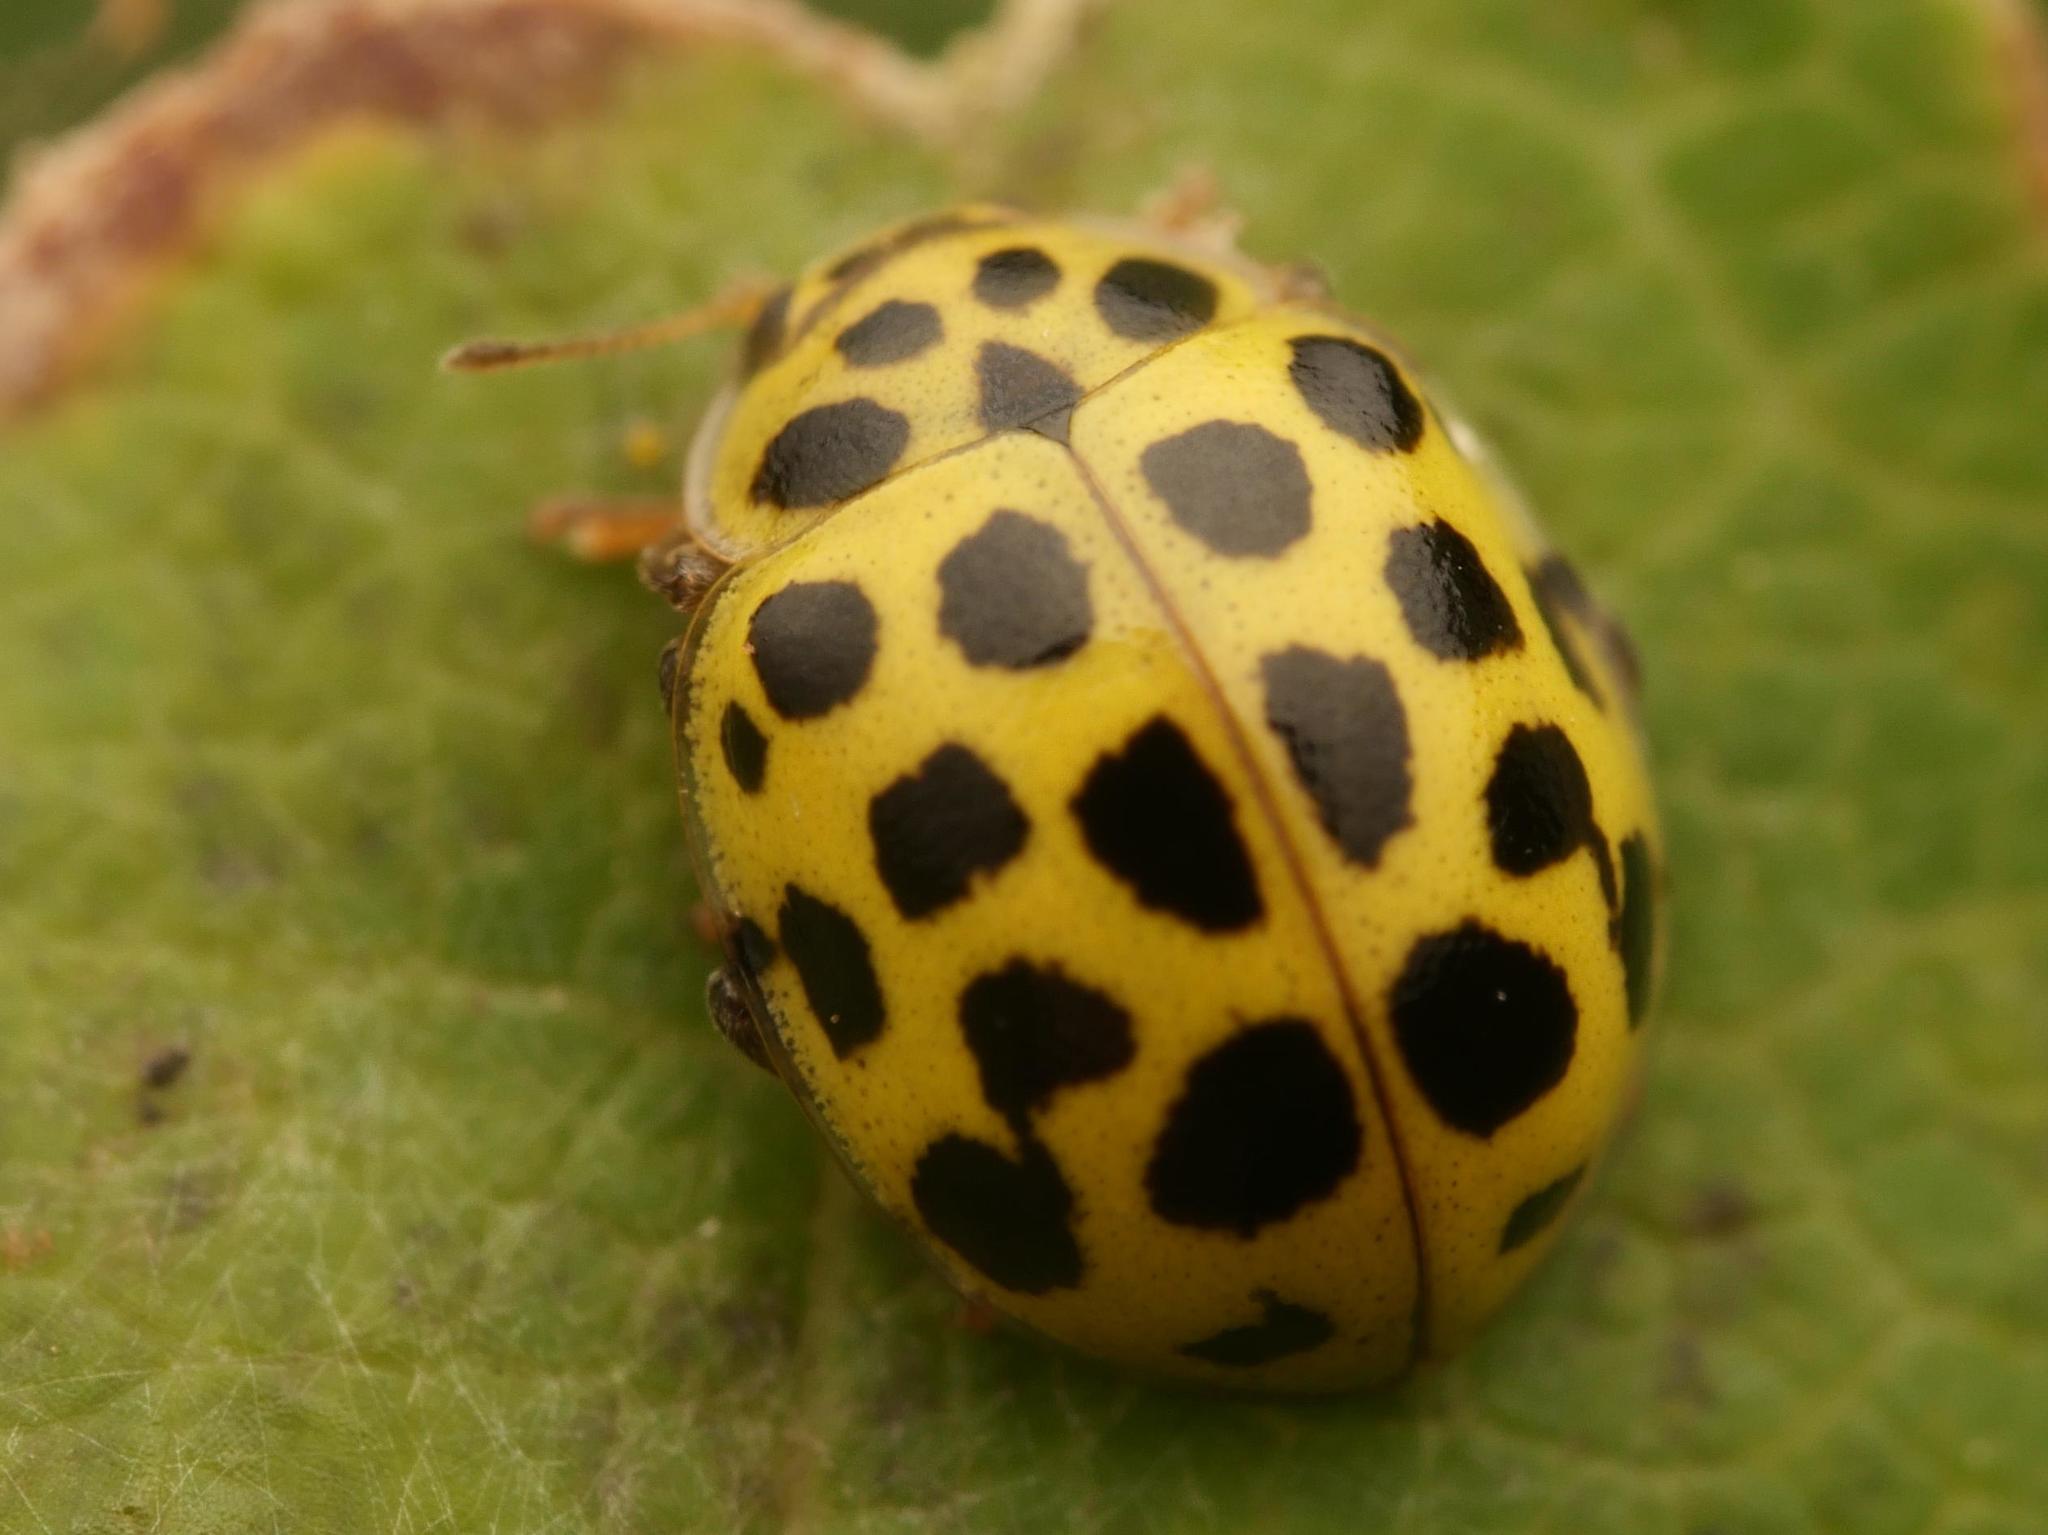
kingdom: Animalia
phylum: Arthropoda
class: Insecta
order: Coleoptera
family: Coccinellidae
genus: Psyllobora
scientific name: Psyllobora vigintiduopunctata
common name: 22-spot ladybird
